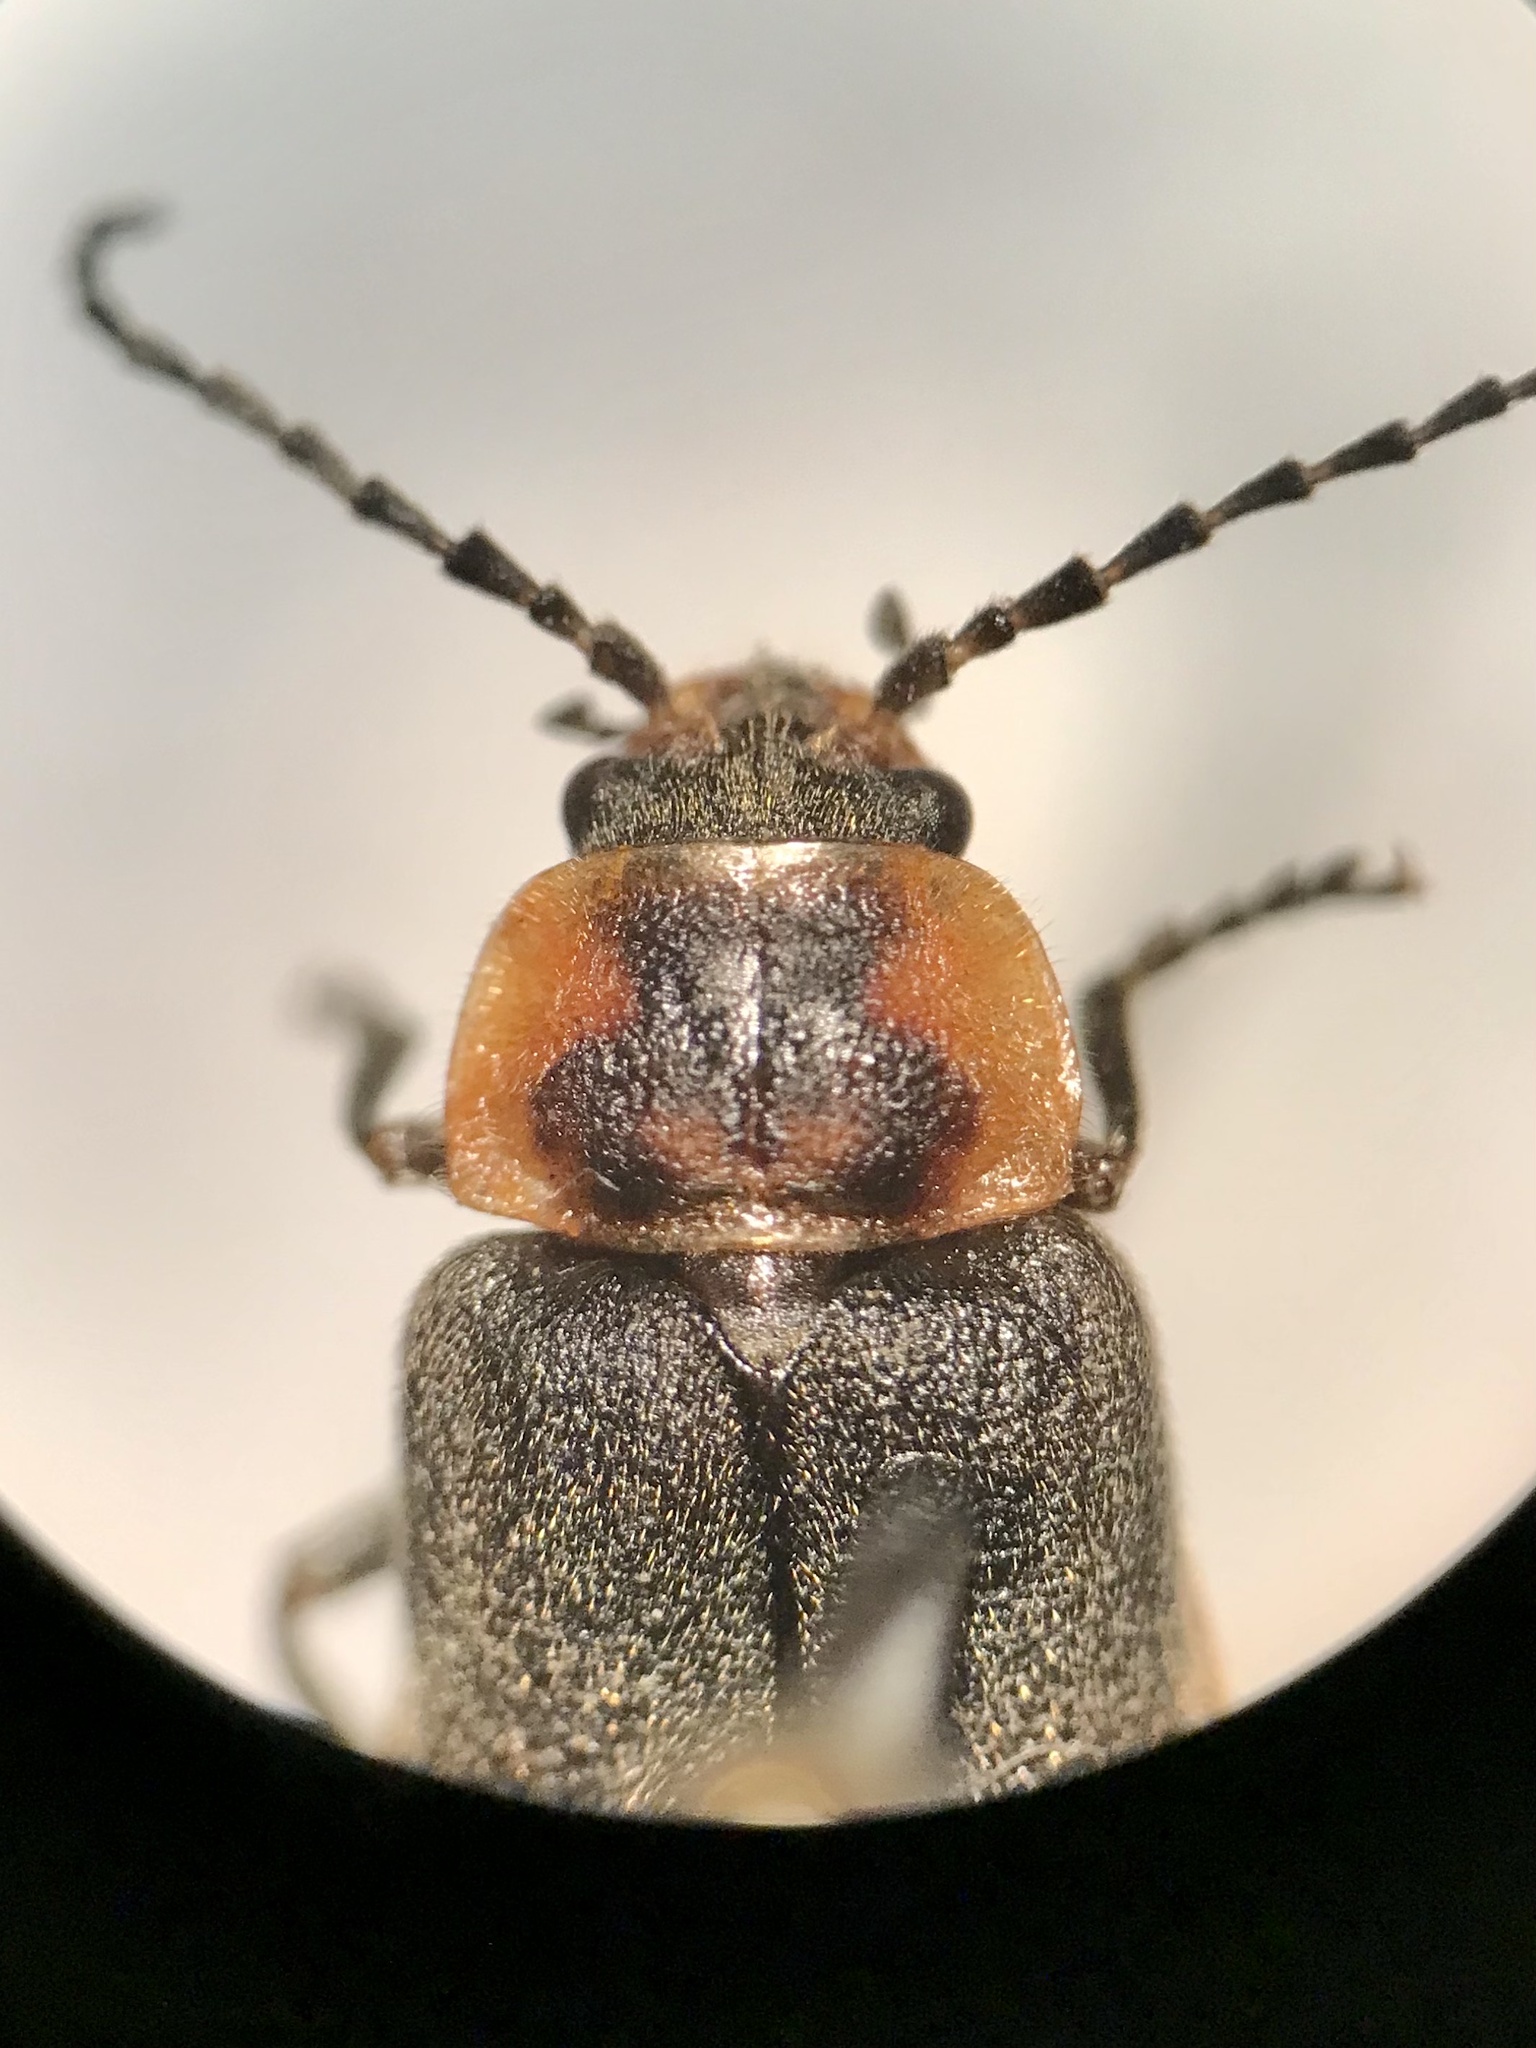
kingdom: Animalia
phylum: Arthropoda
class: Insecta
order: Coleoptera
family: Cantharidae
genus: Atalantycha
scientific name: Atalantycha dentigera
